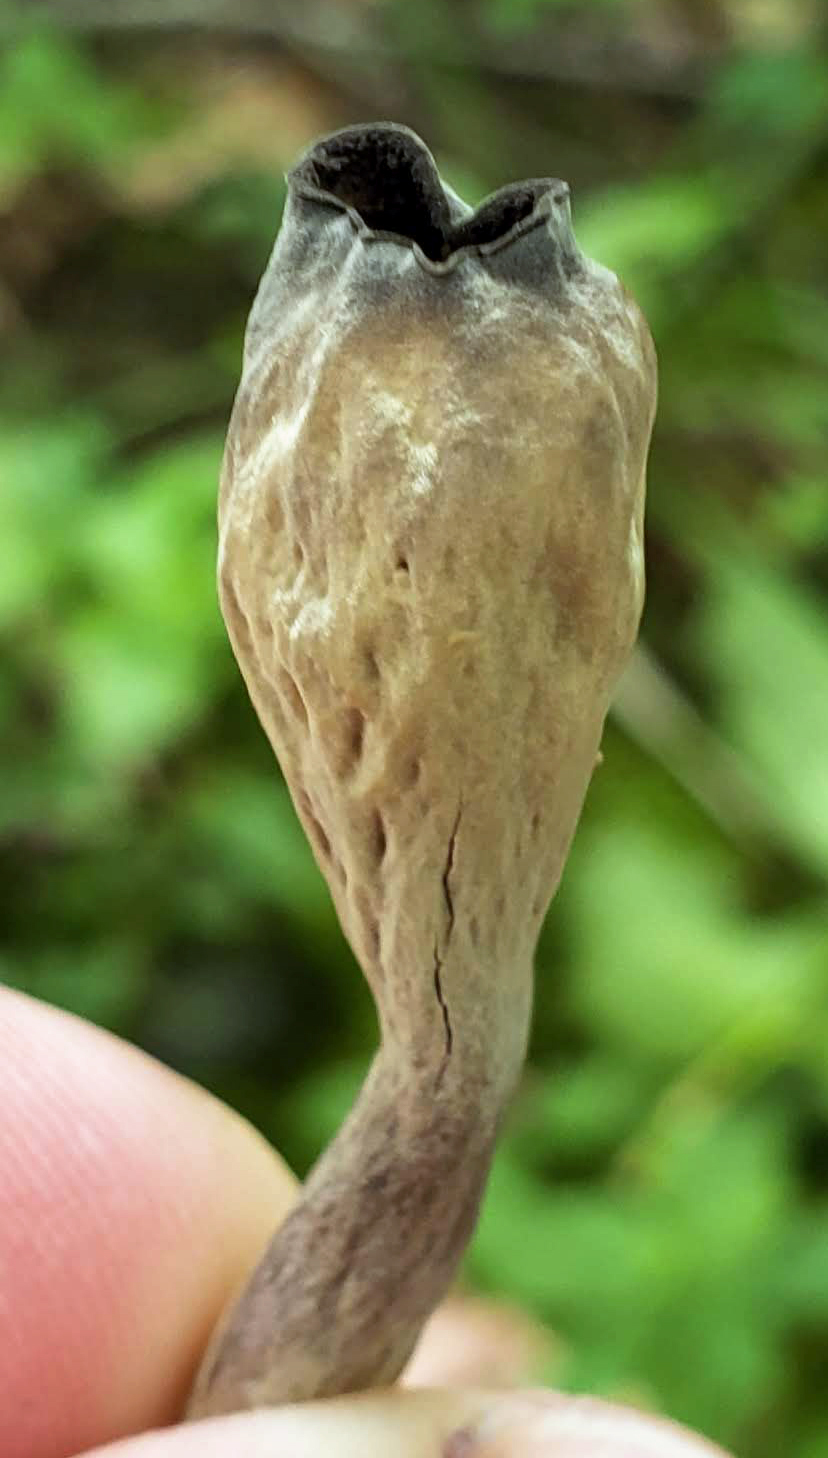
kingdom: Fungi
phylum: Basidiomycota
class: Agaricomycetes
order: Cantharellales
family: Hydnaceae
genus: Craterellus
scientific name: Craterellus cornucopioides
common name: Horn of plenty
